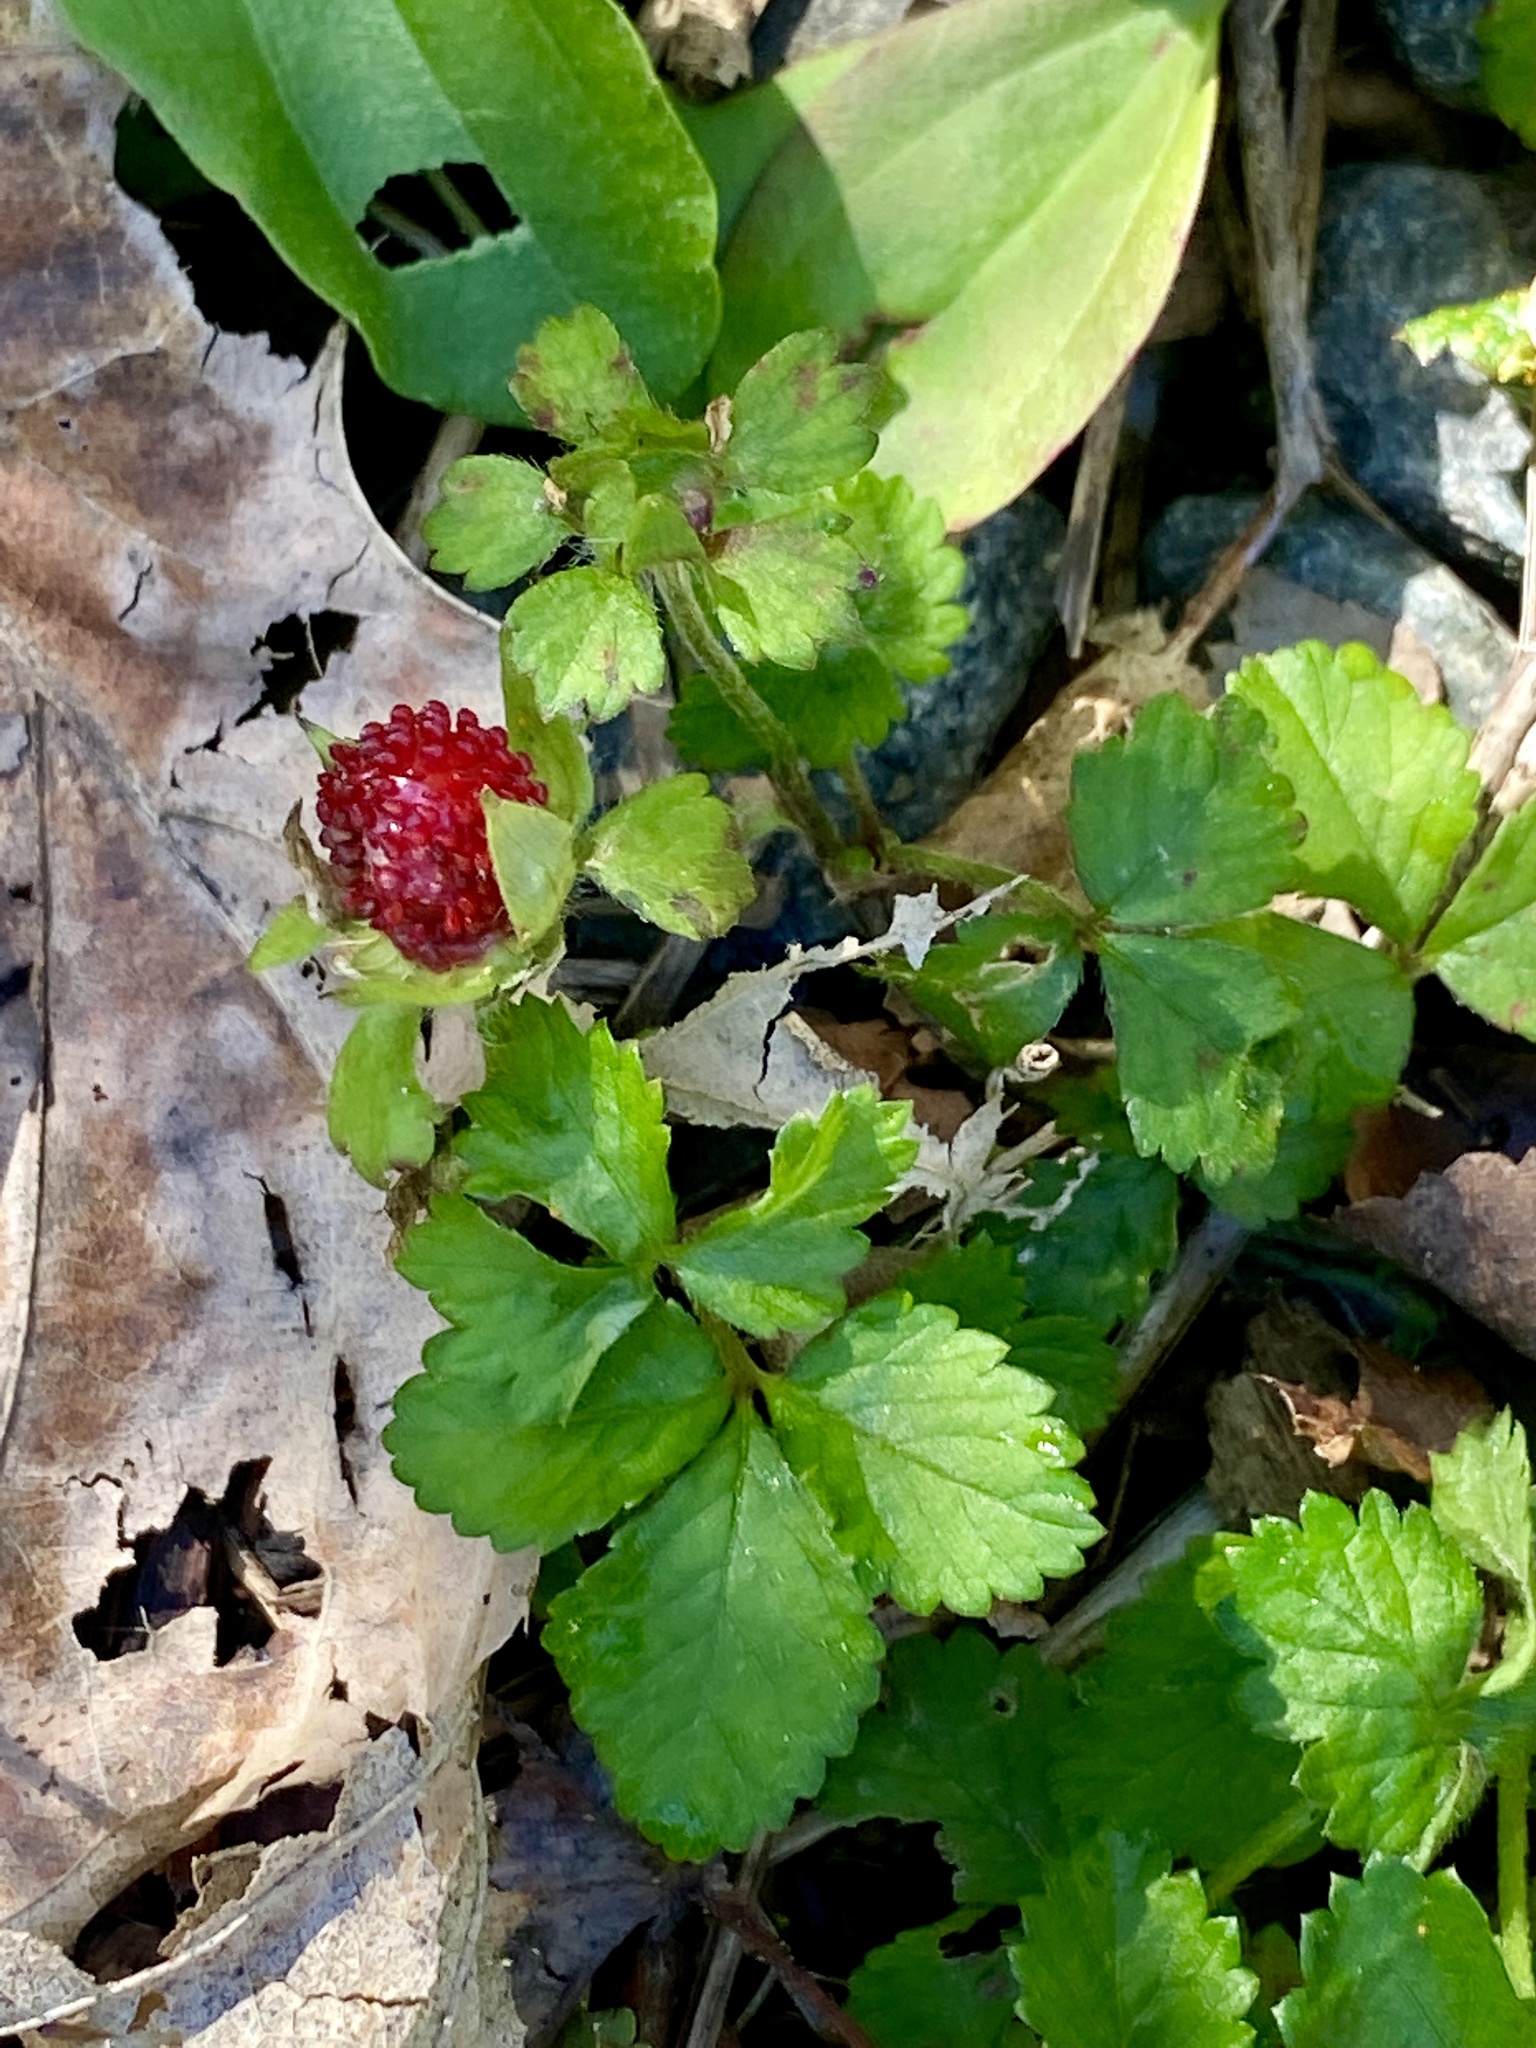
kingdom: Plantae
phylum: Tracheophyta
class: Magnoliopsida
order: Rosales
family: Rosaceae
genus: Potentilla
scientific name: Potentilla indica
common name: Yellow-flowered strawberry
